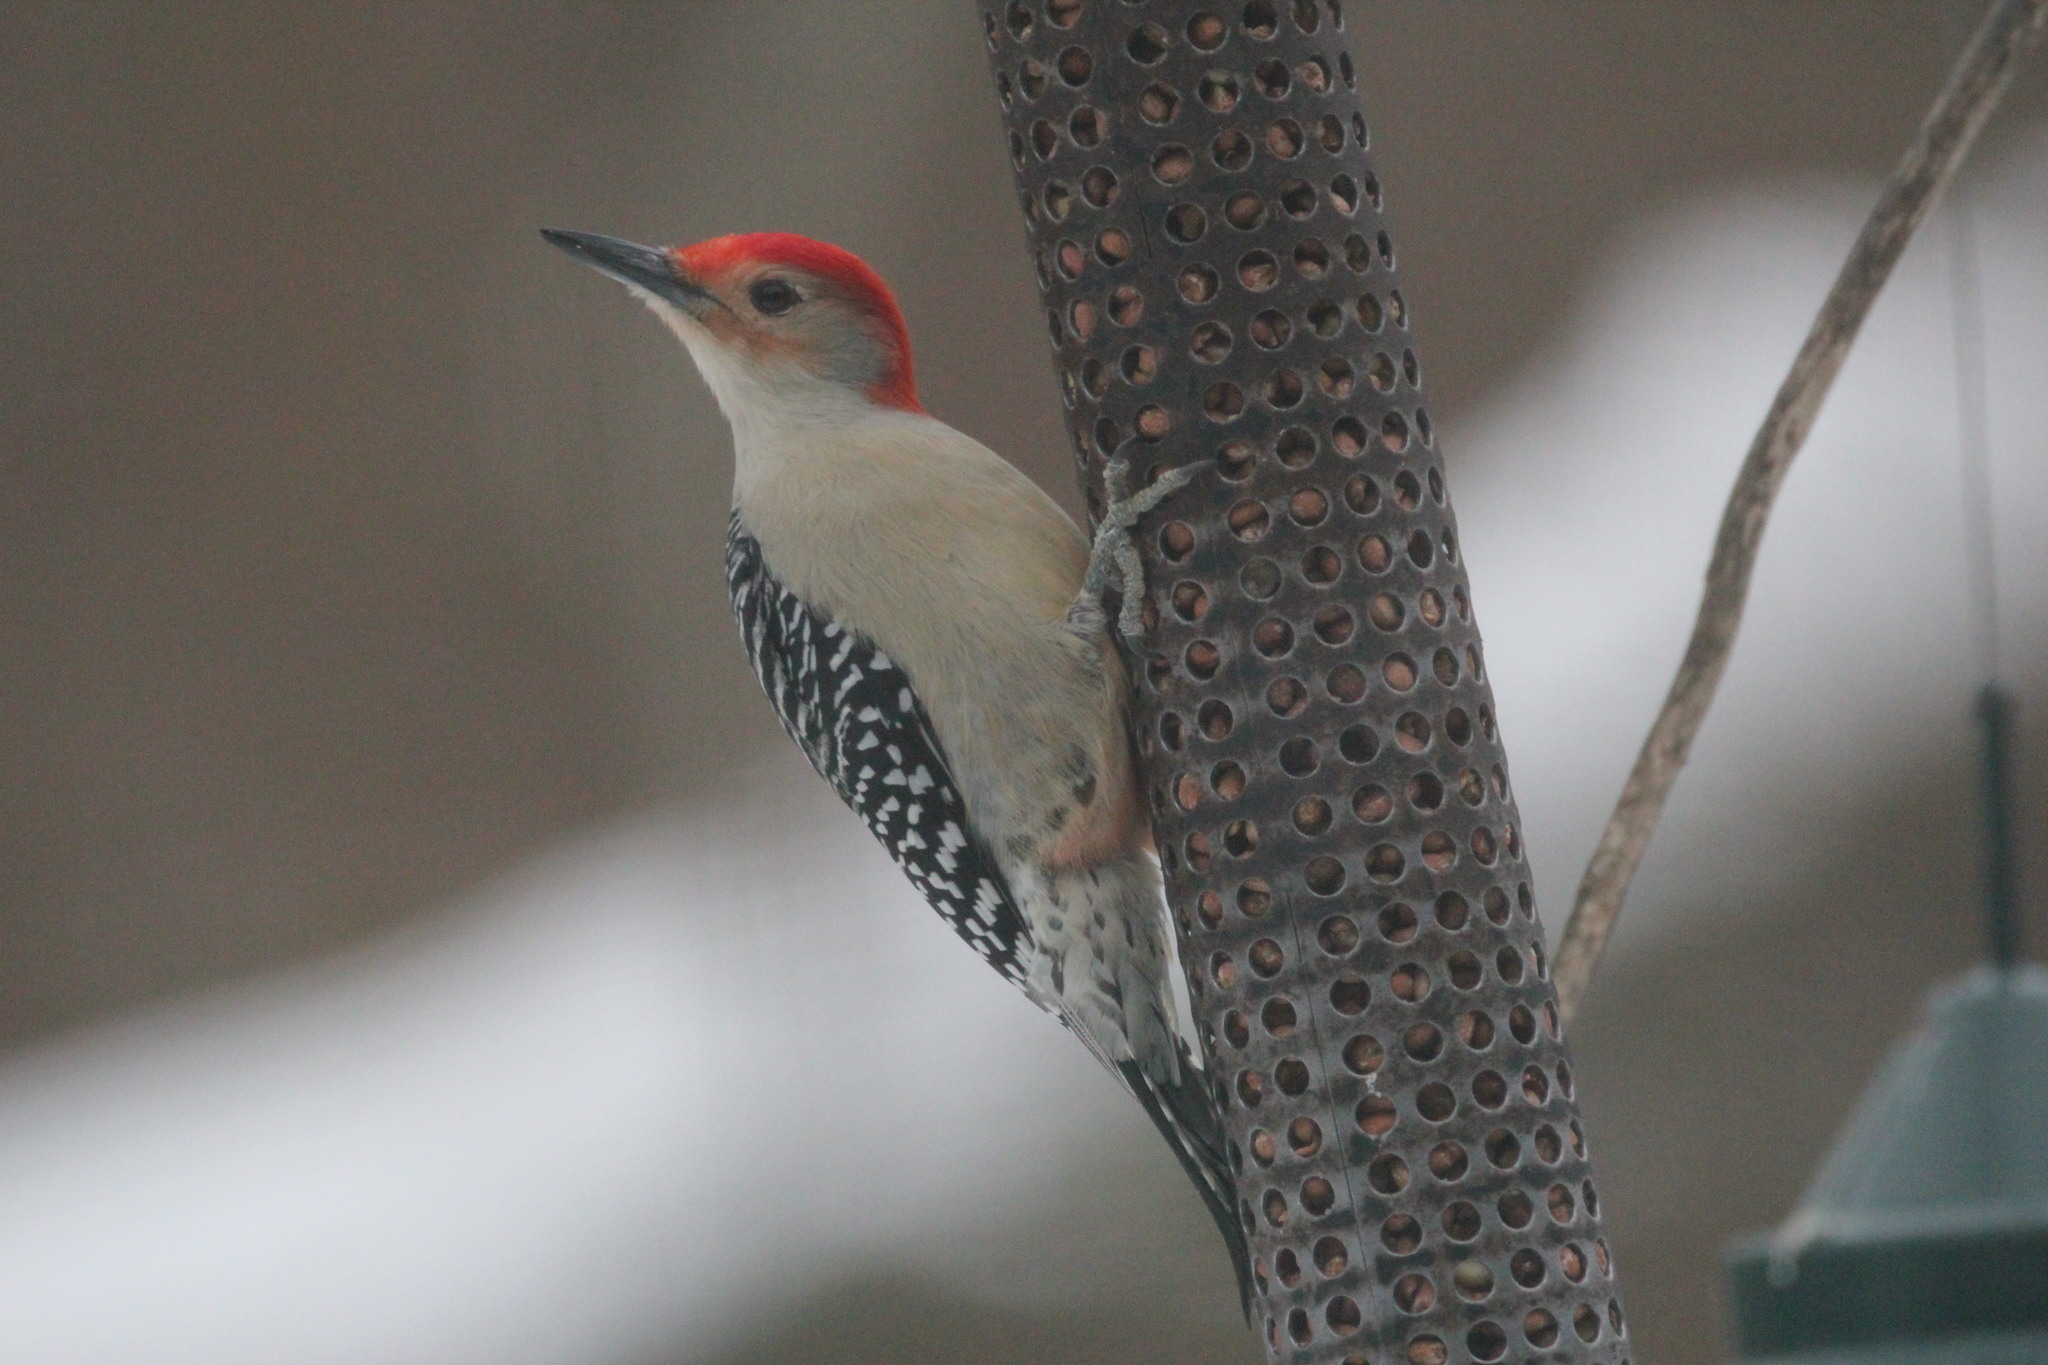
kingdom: Animalia
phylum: Chordata
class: Aves
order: Piciformes
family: Picidae
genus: Melanerpes
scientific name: Melanerpes carolinus
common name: Red-bellied woodpecker
